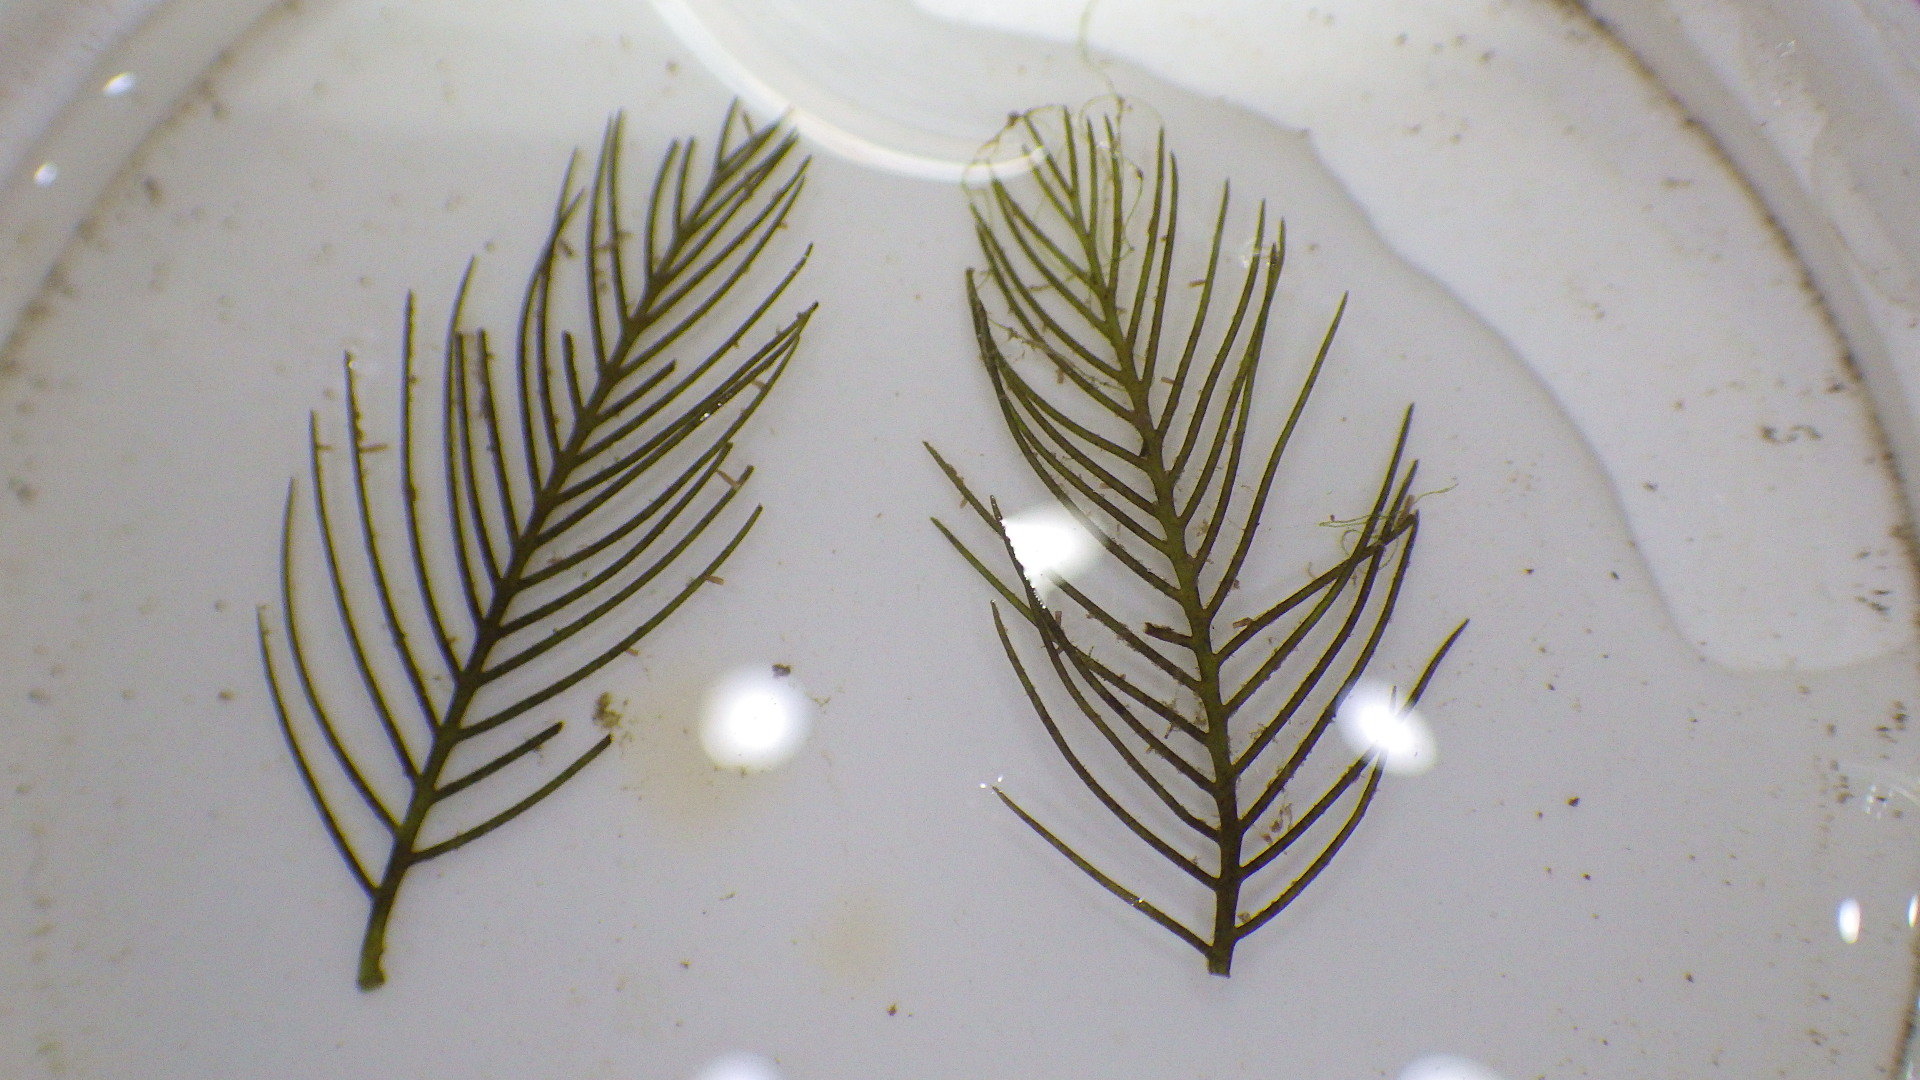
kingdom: Plantae
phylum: Tracheophyta
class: Magnoliopsida
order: Saxifragales
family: Haloragaceae
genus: Myriophyllum
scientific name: Myriophyllum spicatum
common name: Spiked water-milfoil
